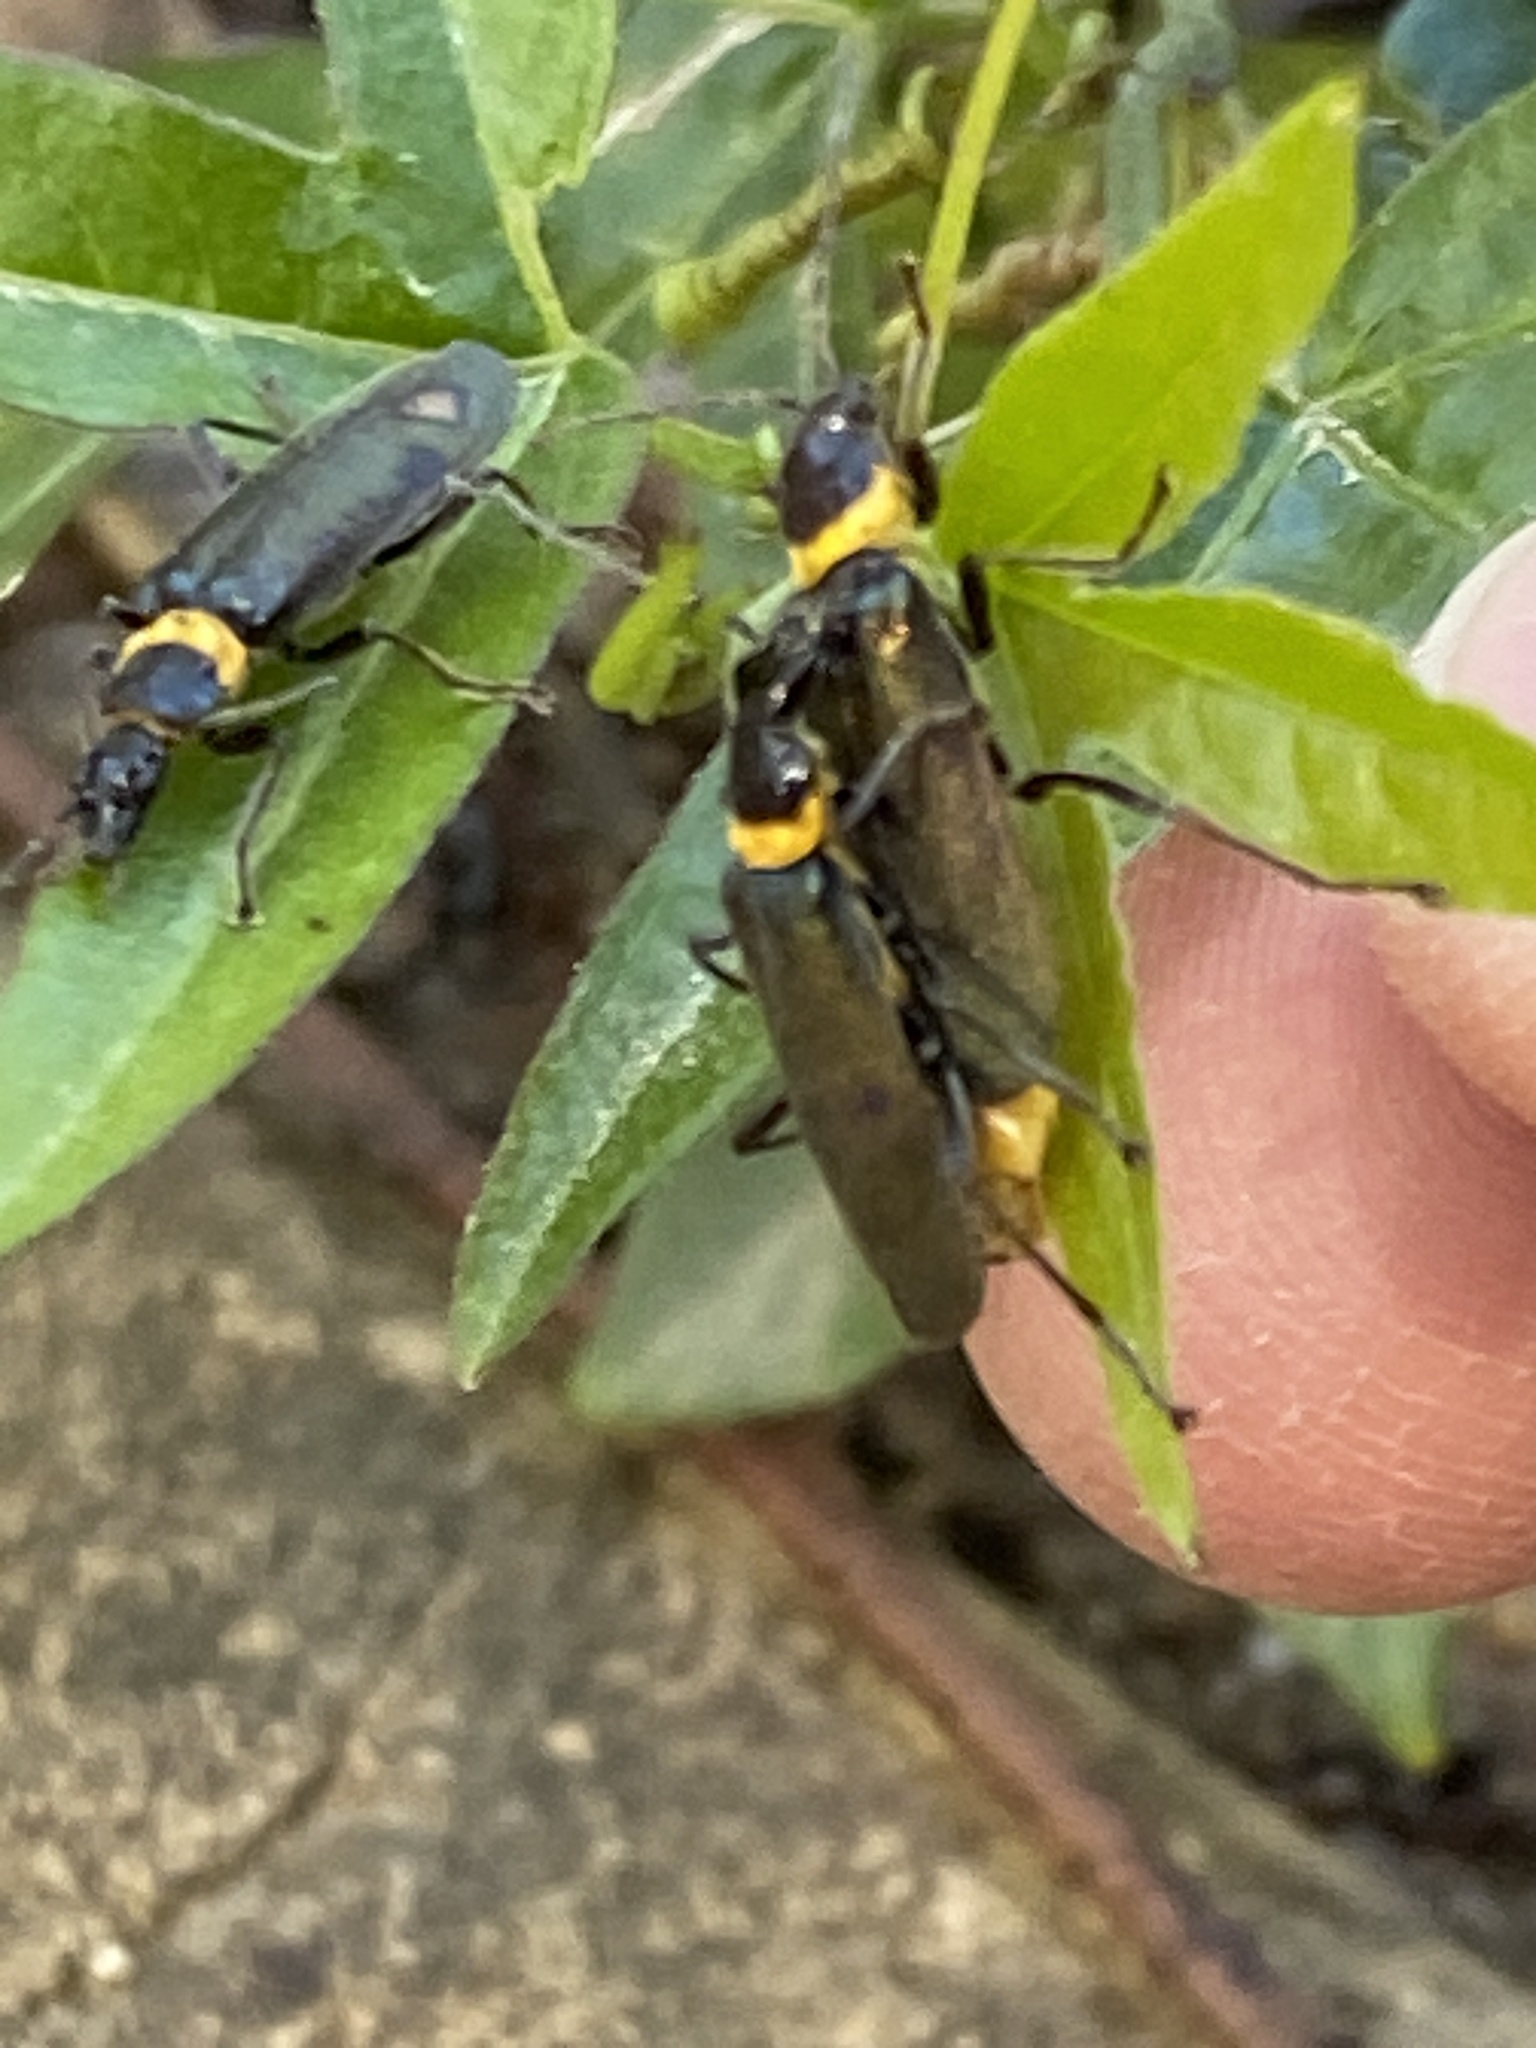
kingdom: Animalia
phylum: Arthropoda
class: Insecta
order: Coleoptera
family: Cantharidae
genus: Chauliognathus
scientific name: Chauliognathus
